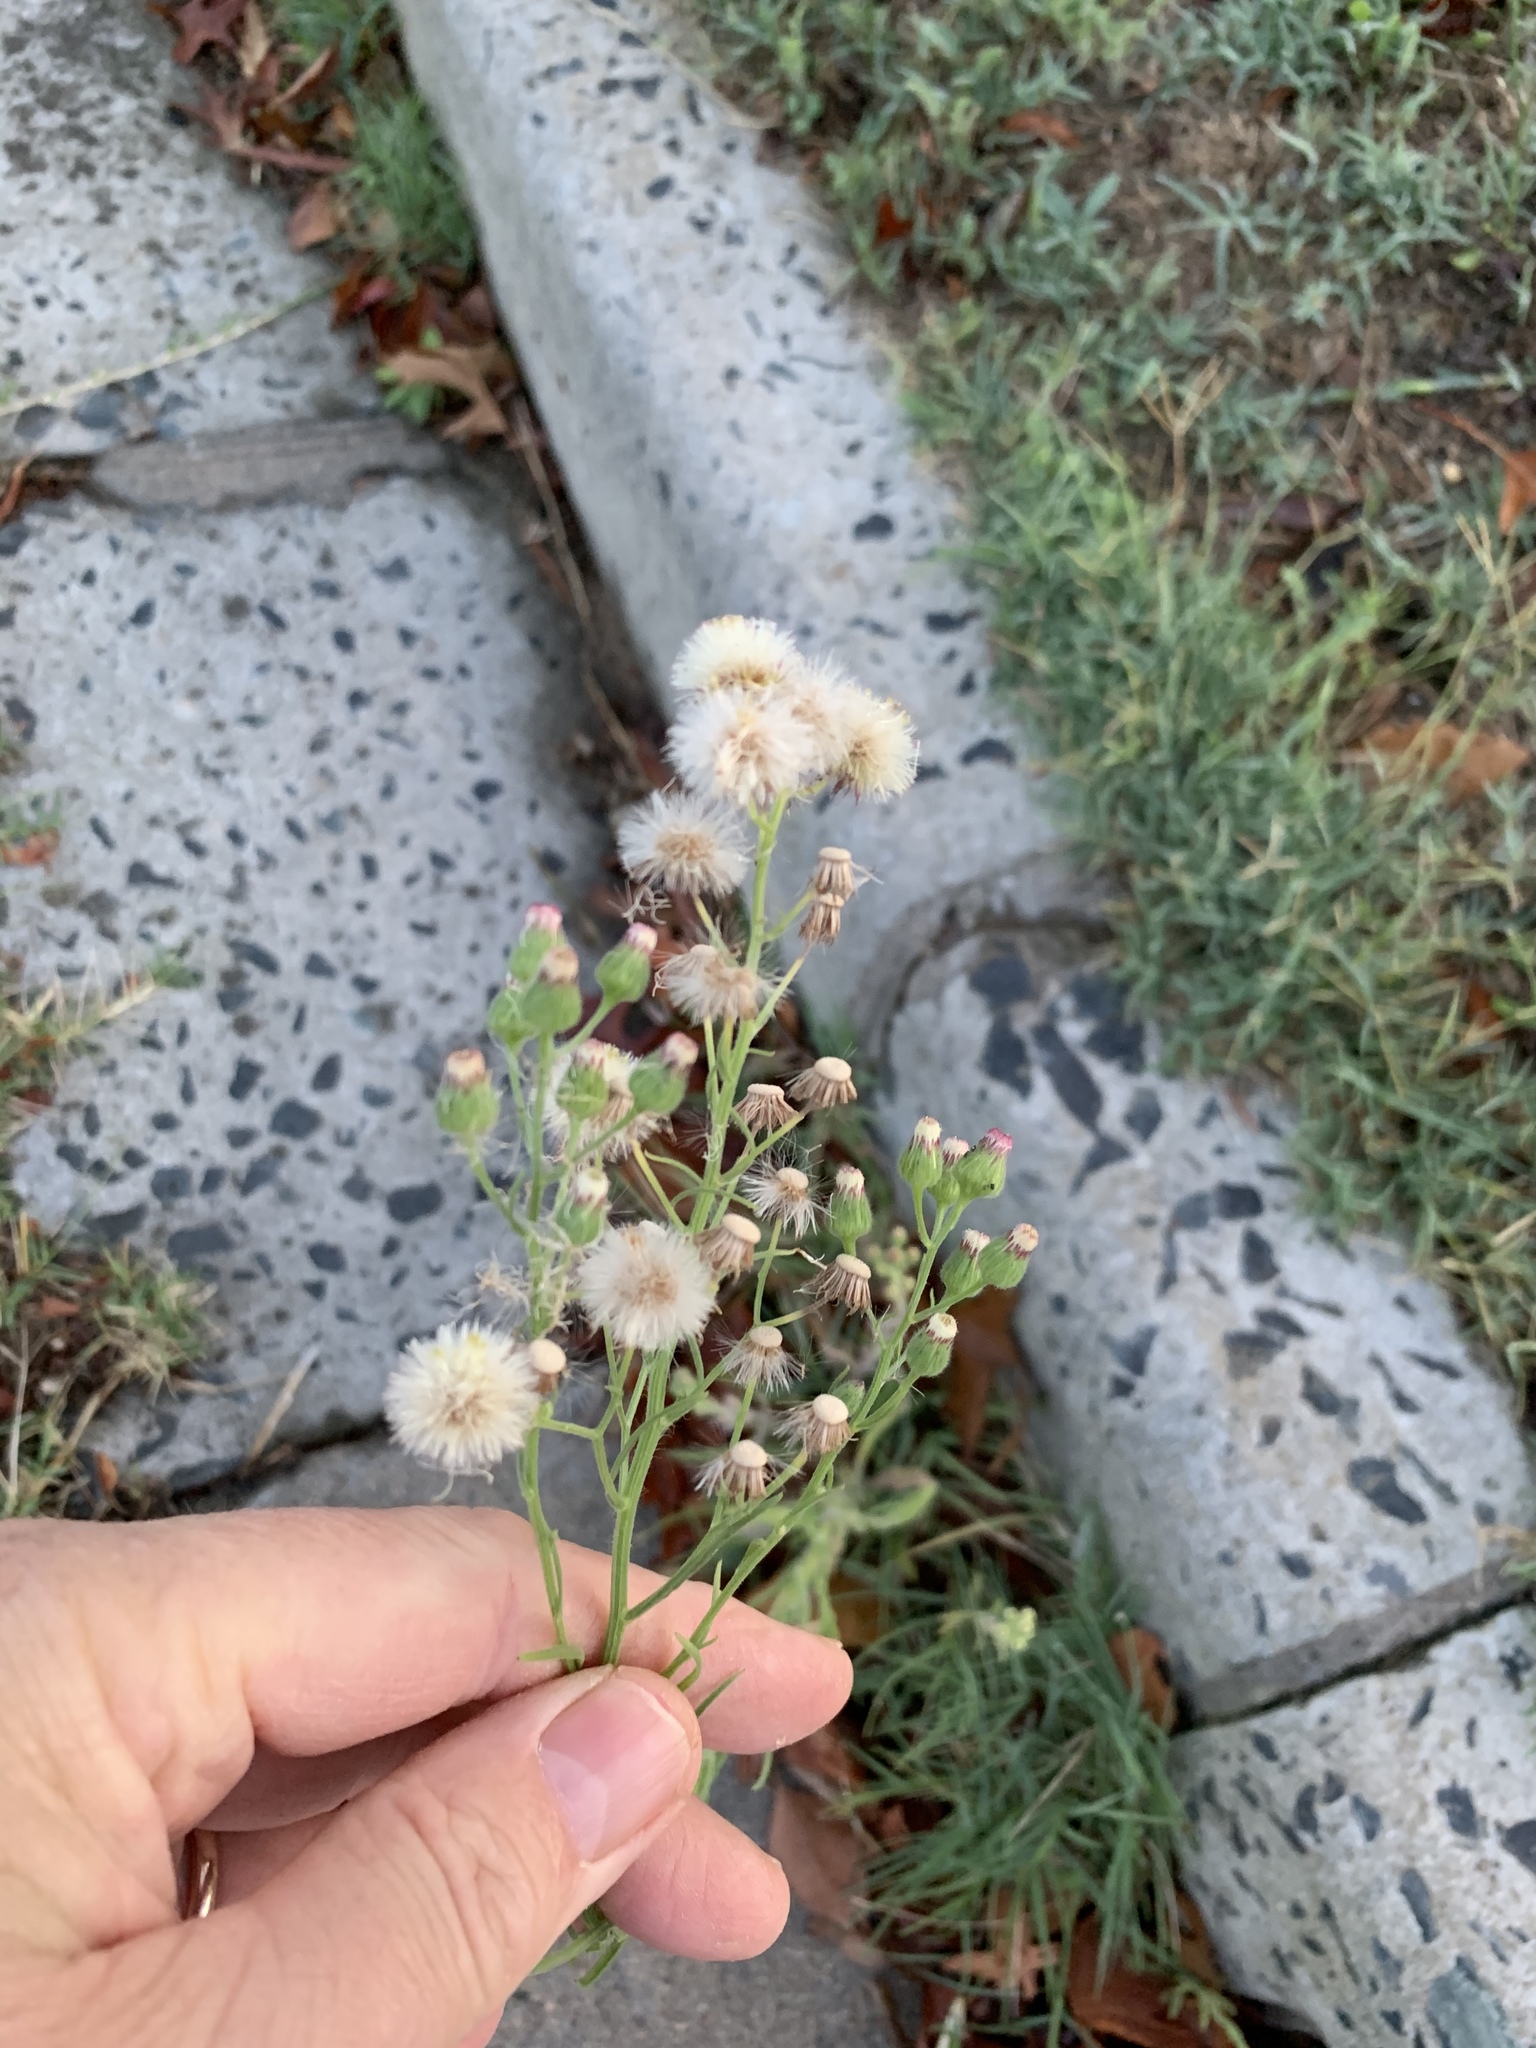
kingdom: Plantae
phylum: Tracheophyta
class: Magnoliopsida
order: Asterales
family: Asteraceae
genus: Erigeron
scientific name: Erigeron bonariensis
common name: Argentine fleabane
